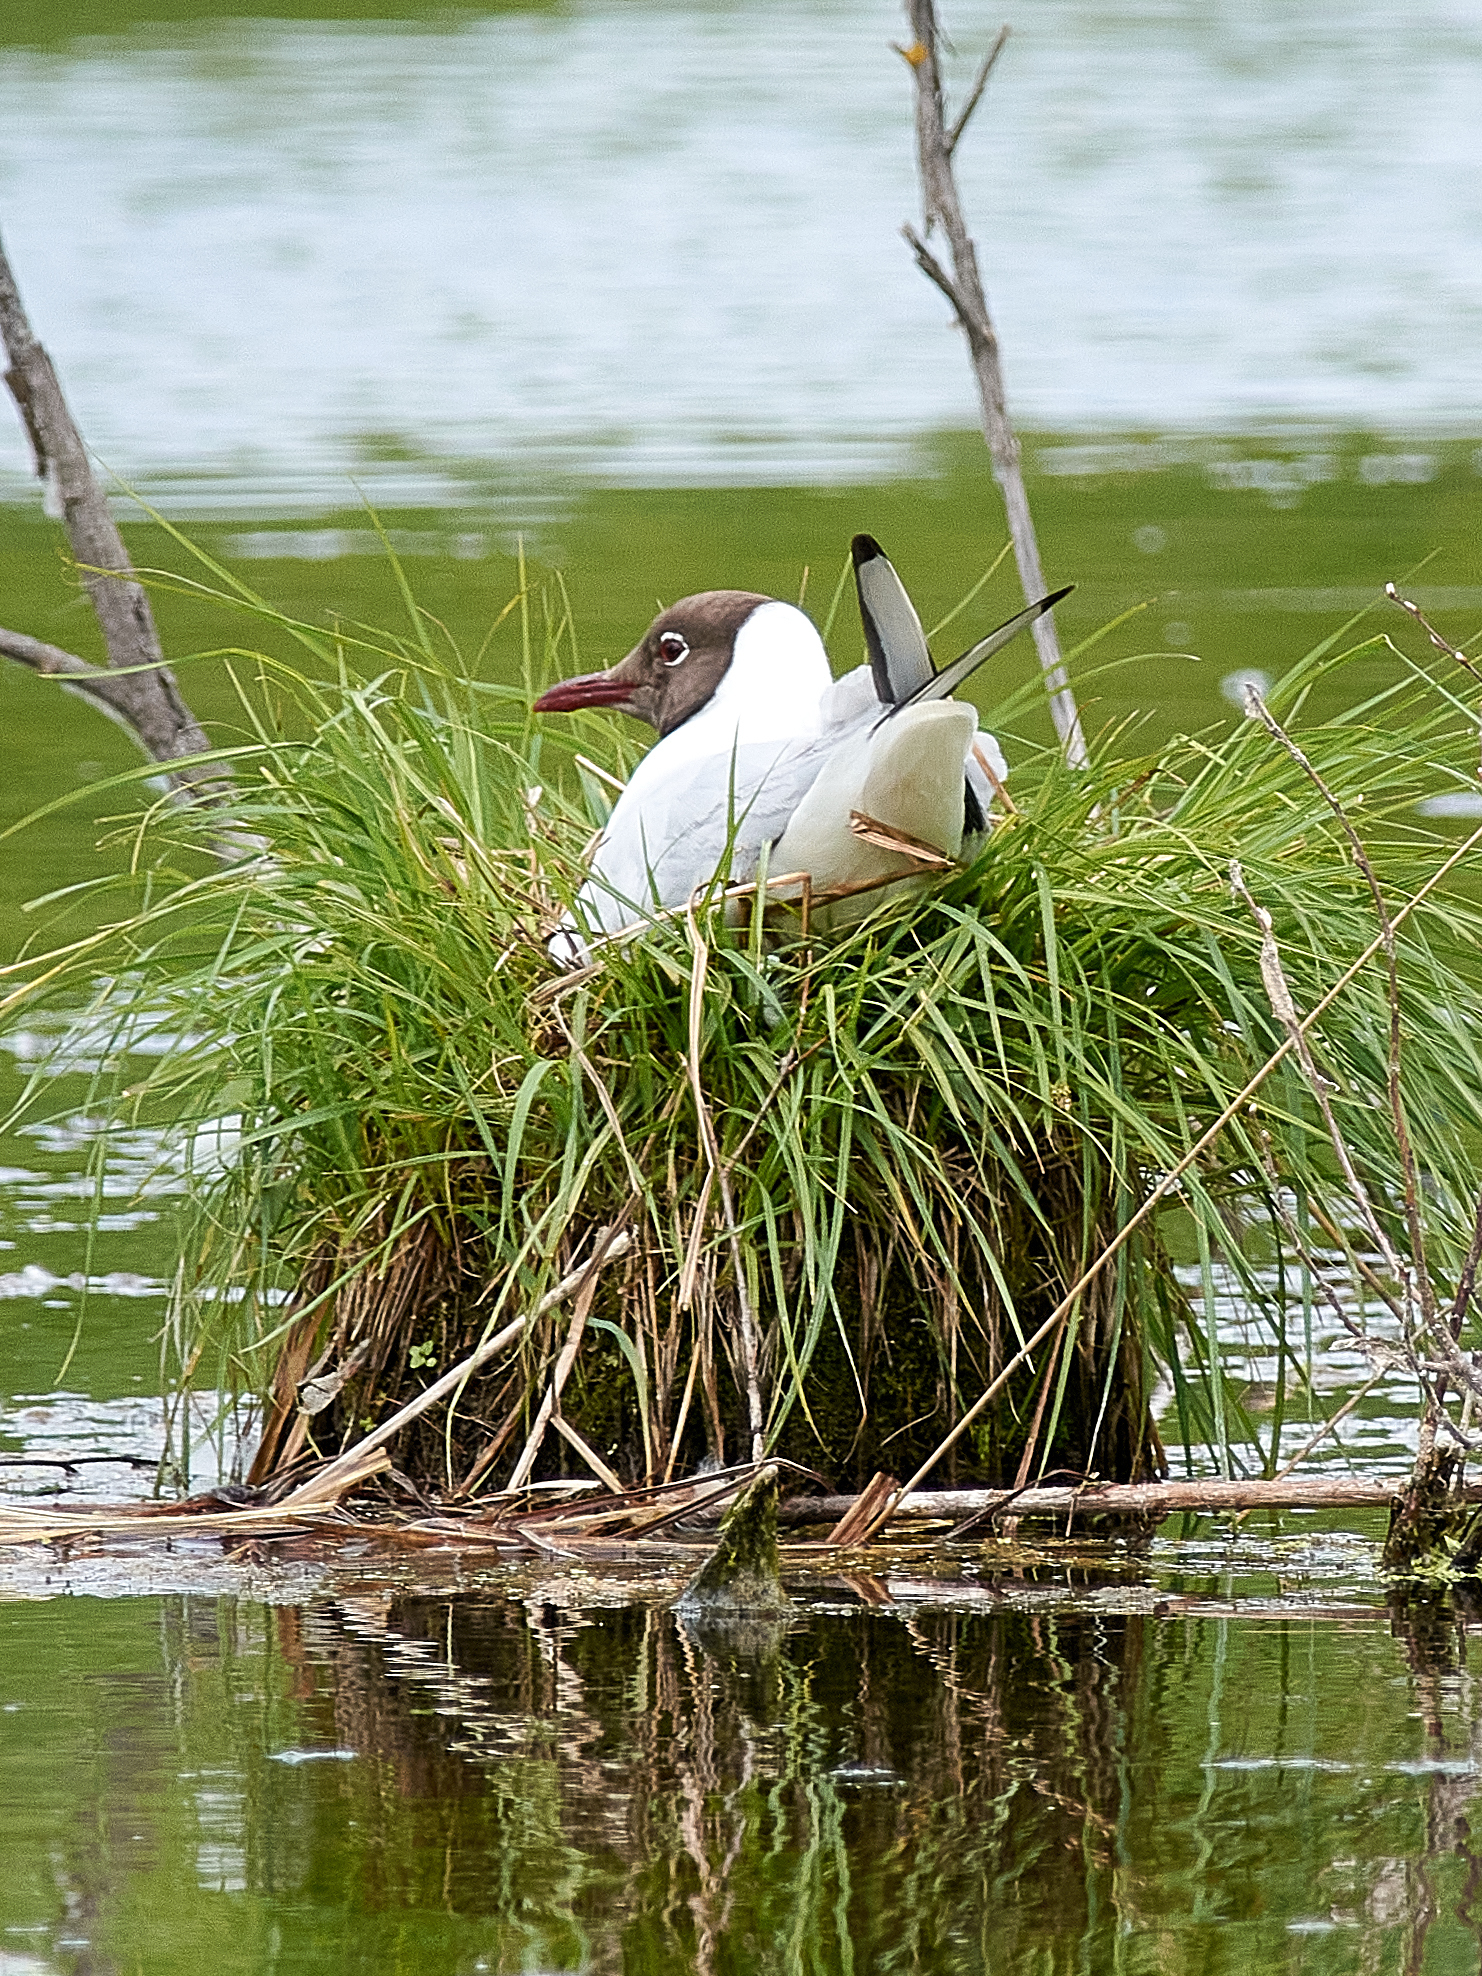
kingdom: Animalia
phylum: Chordata
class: Aves
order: Charadriiformes
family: Laridae
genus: Chroicocephalus
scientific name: Chroicocephalus ridibundus
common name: Black-headed gull
